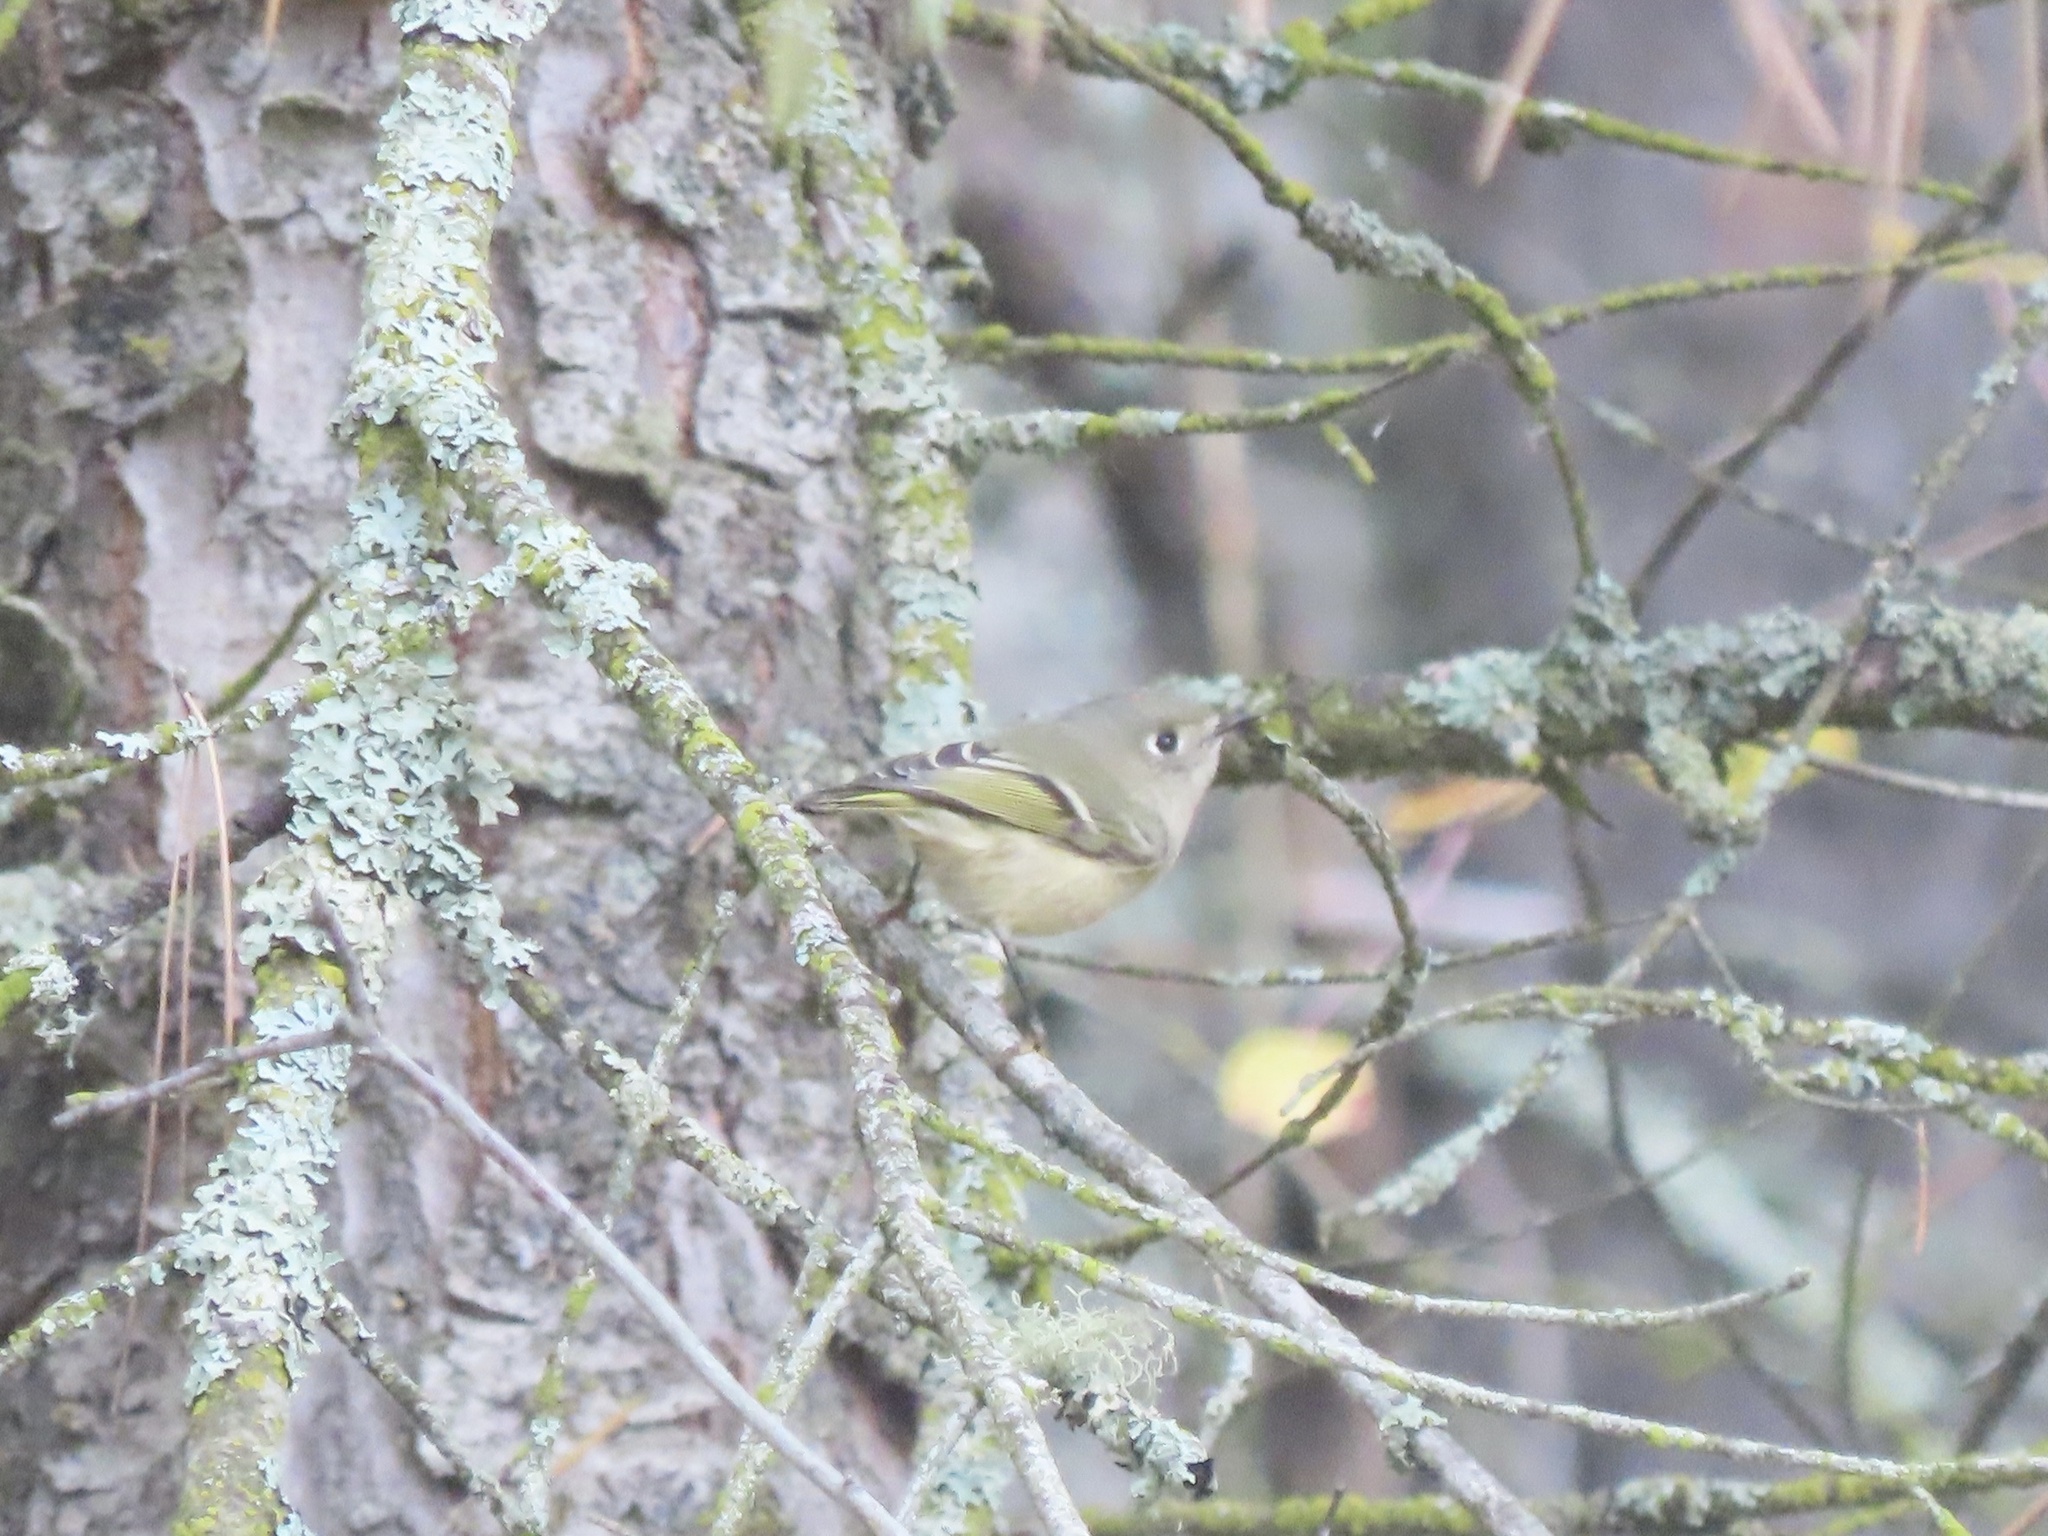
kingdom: Animalia
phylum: Chordata
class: Aves
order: Passeriformes
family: Regulidae
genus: Regulus
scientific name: Regulus calendula
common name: Ruby-crowned kinglet
